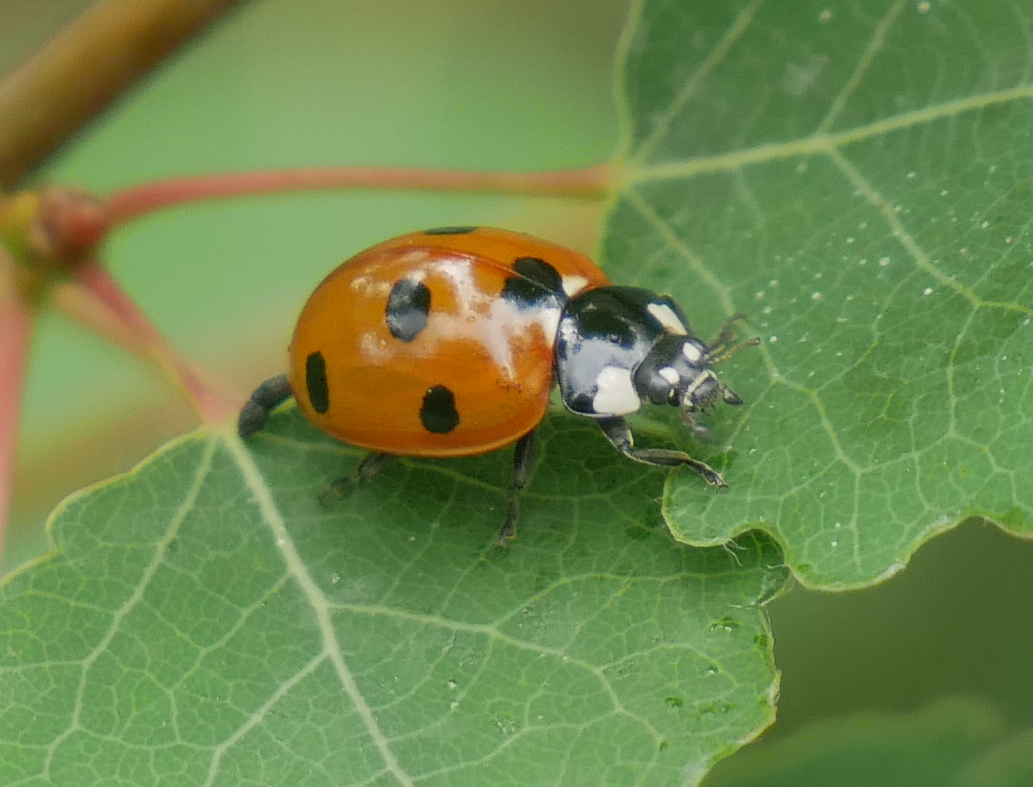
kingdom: Animalia
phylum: Arthropoda
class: Insecta
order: Coleoptera
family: Coccinellidae
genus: Coccinella
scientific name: Coccinella septempunctata
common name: Sevenspotted lady beetle
